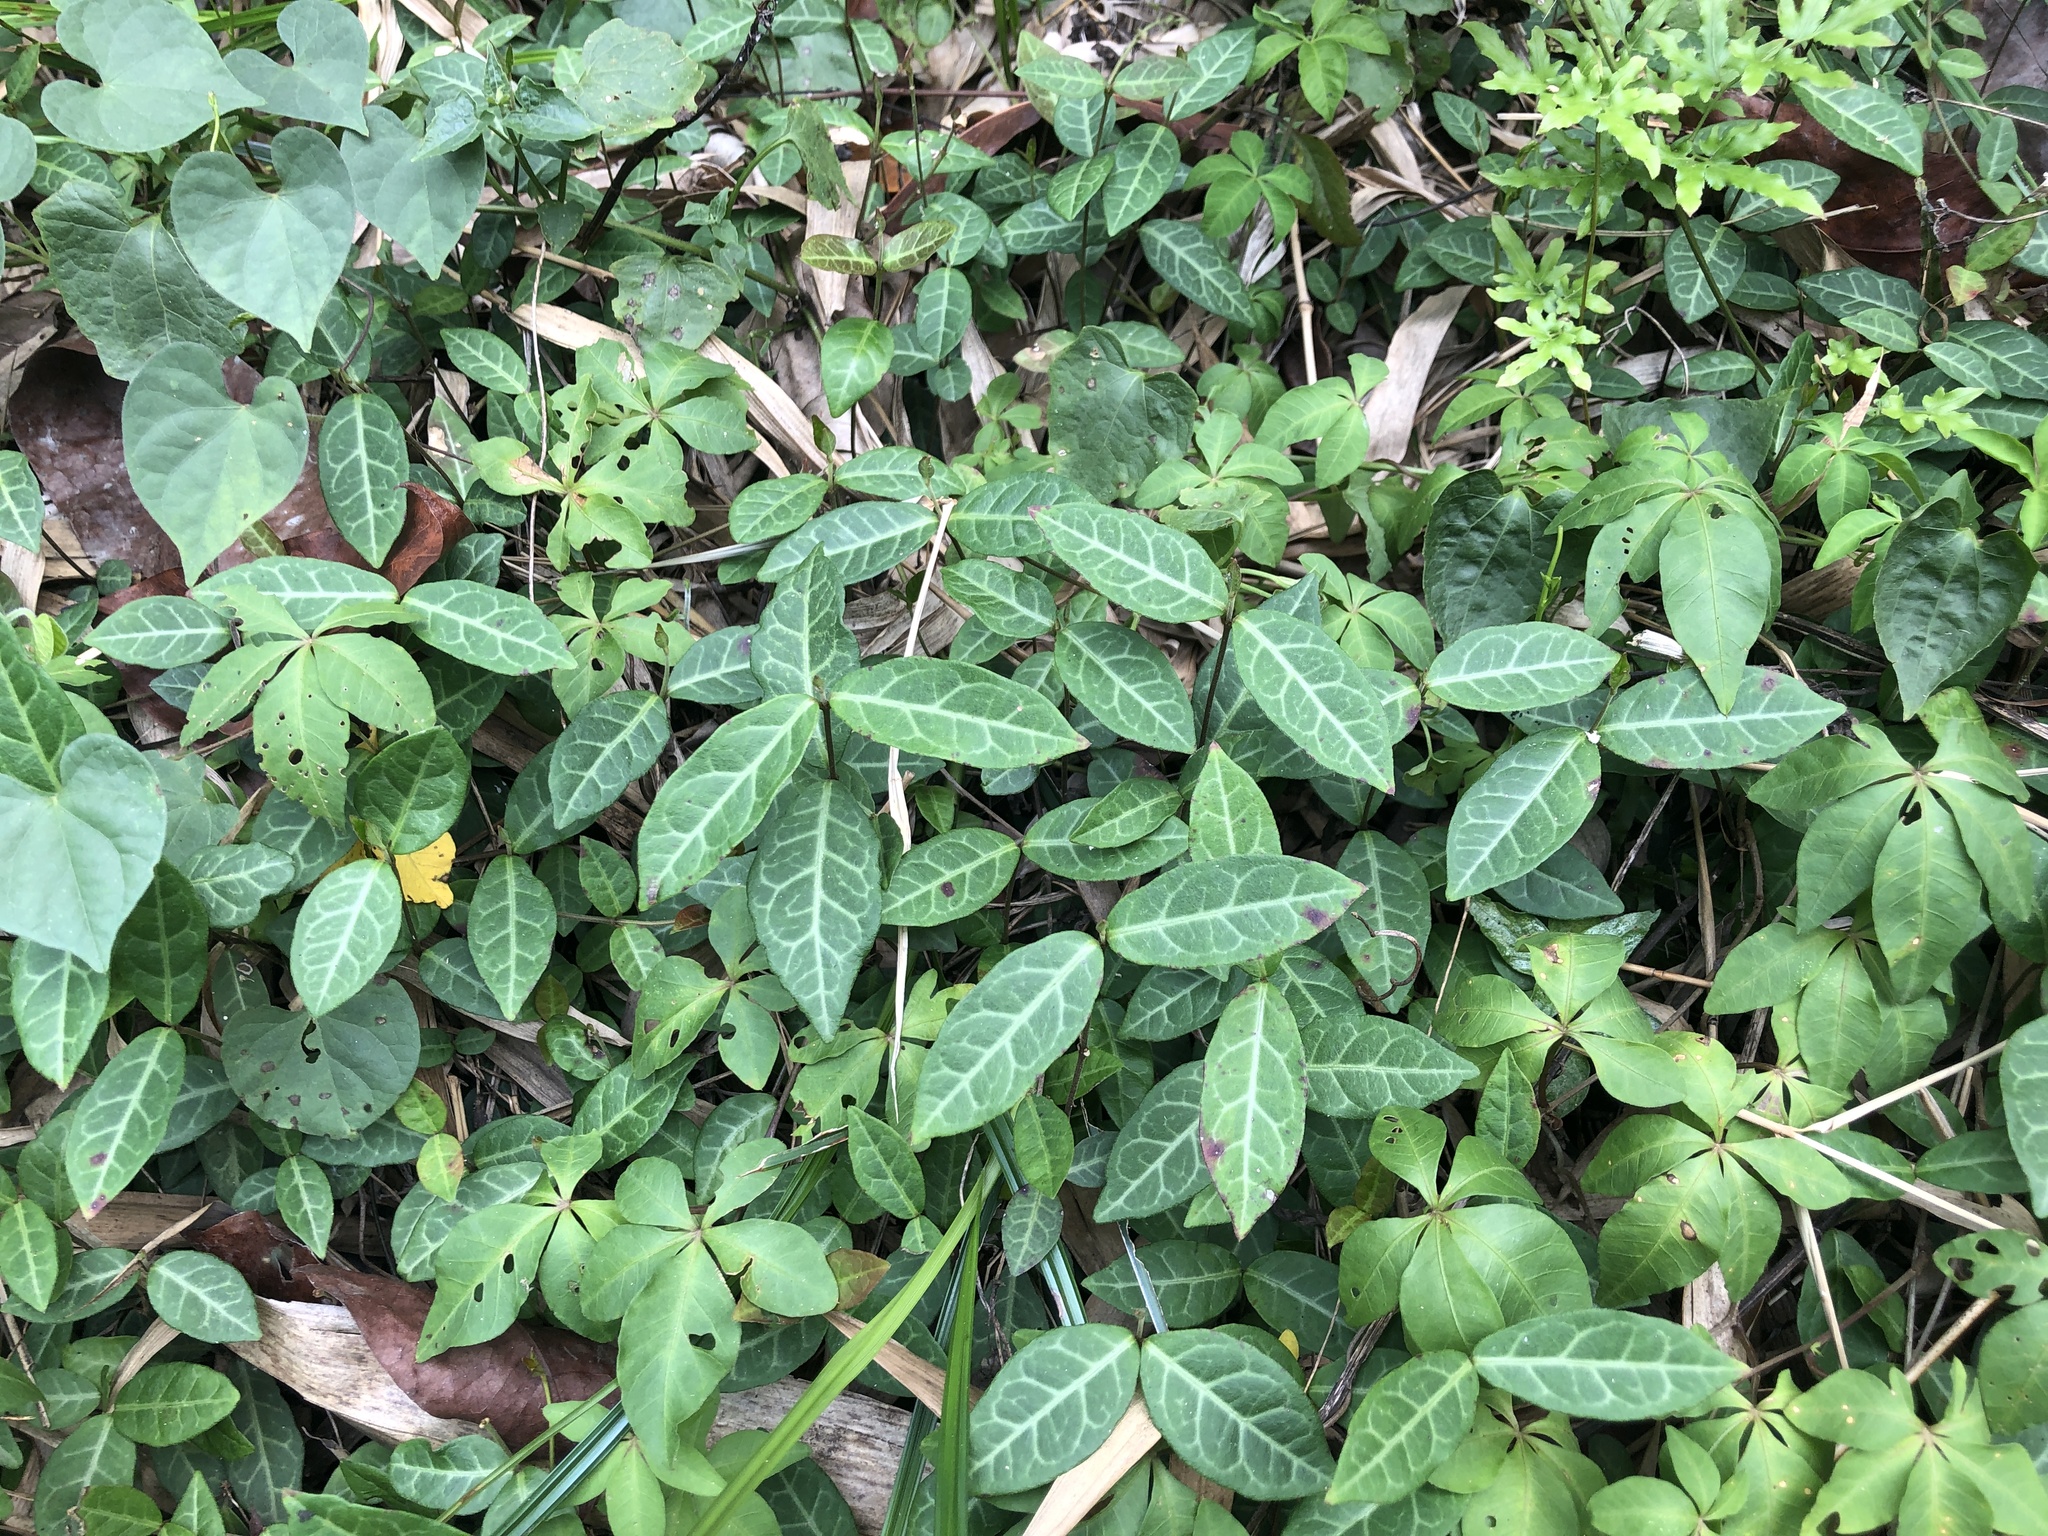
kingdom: Plantae
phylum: Tracheophyta
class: Magnoliopsida
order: Gentianales
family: Apocynaceae
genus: Trachelospermum
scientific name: Trachelospermum jasminoides
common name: Confederate jasmine
